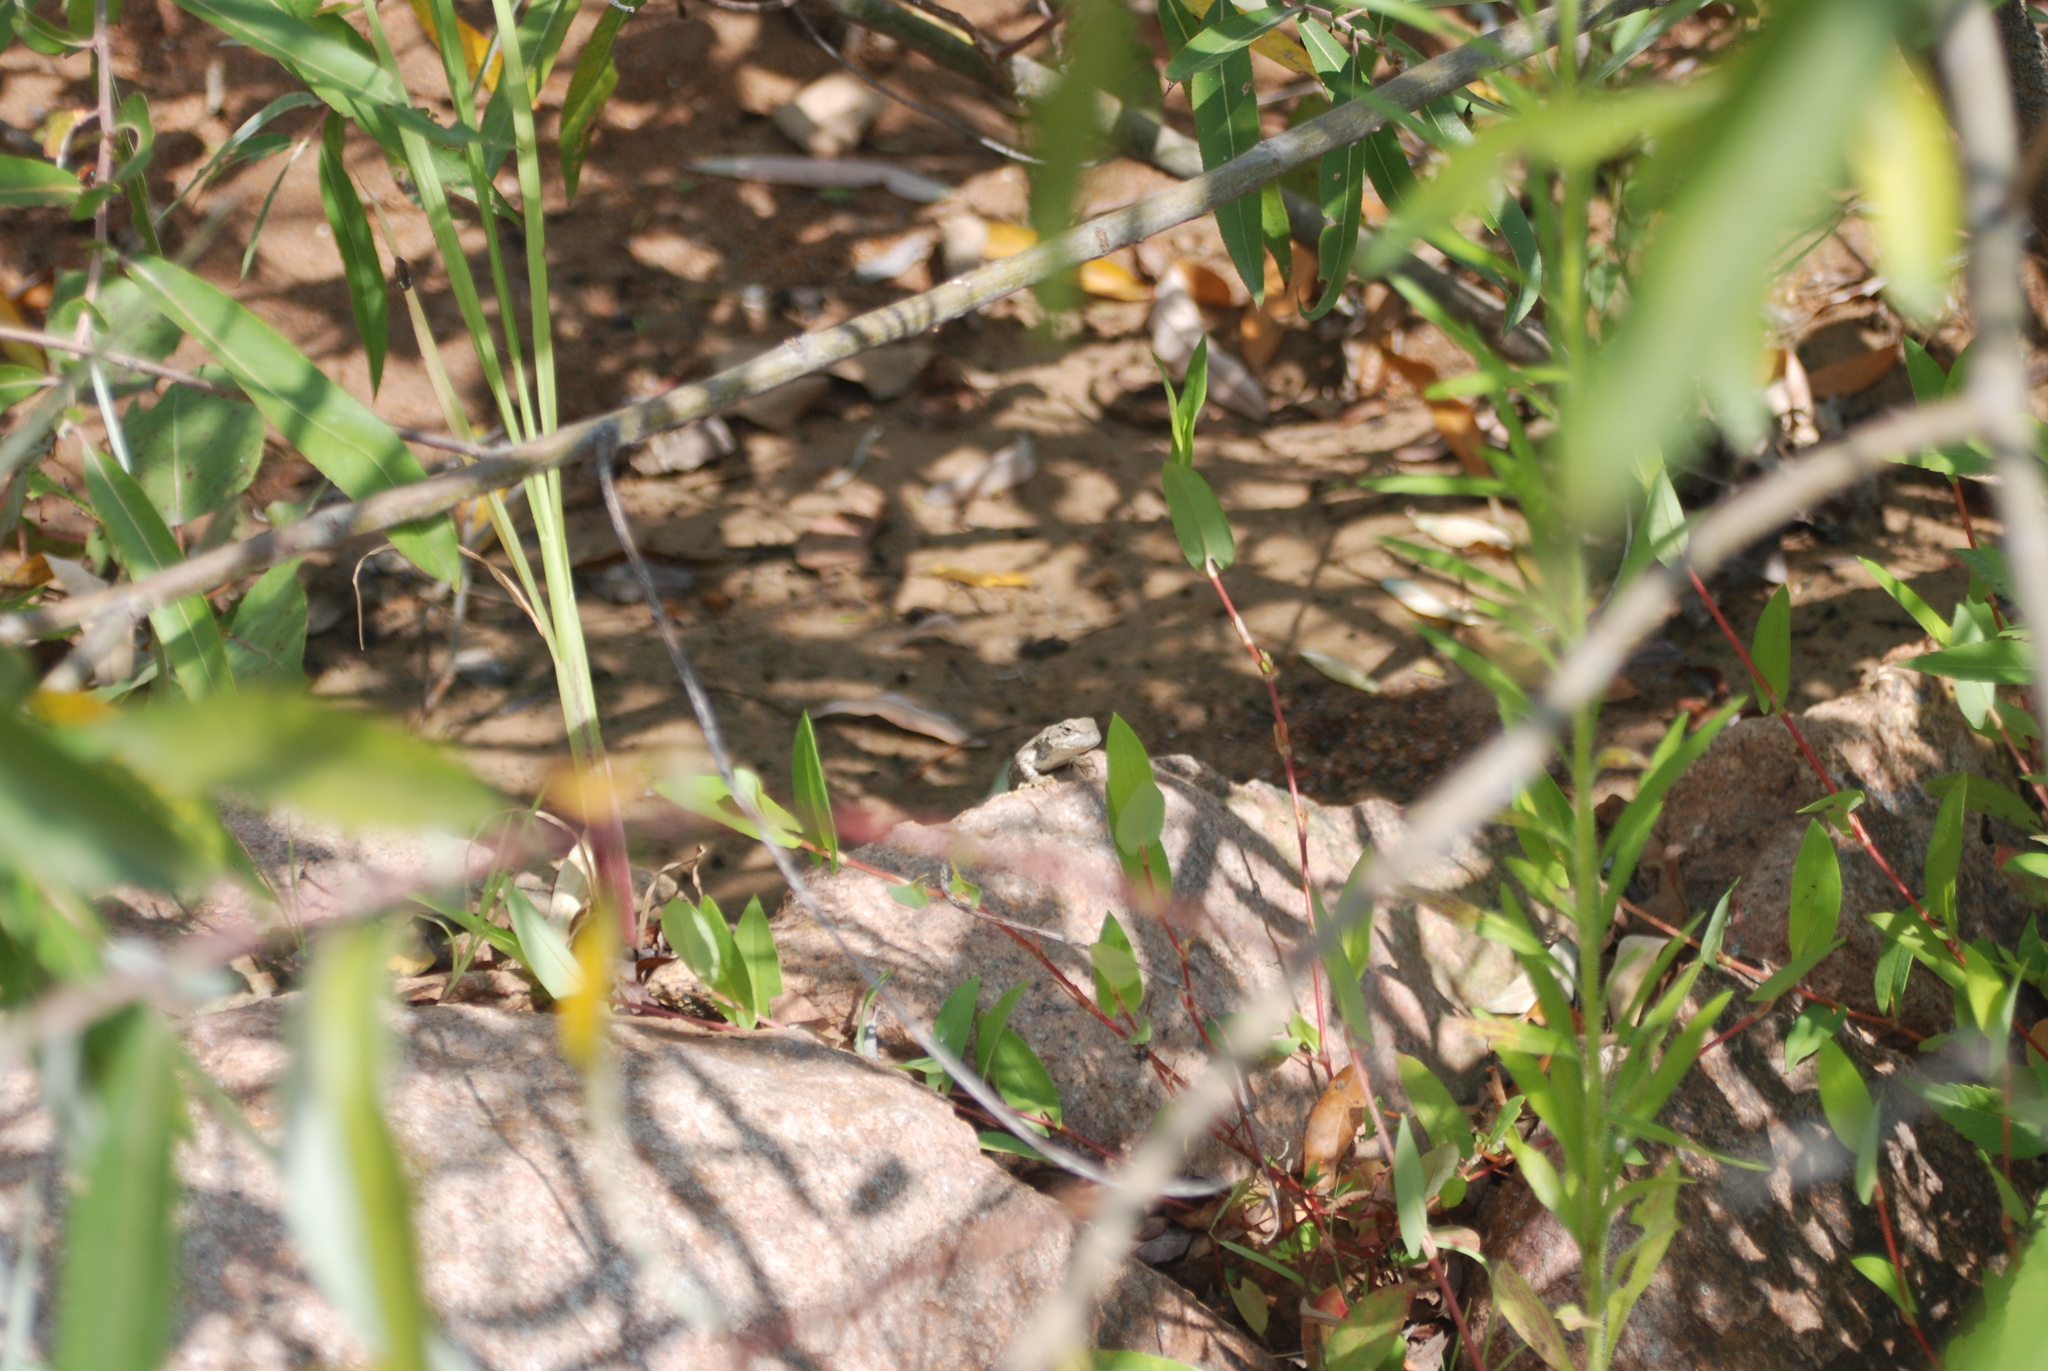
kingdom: Animalia
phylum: Chordata
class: Squamata
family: Phrynosomatidae
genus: Sceloporus
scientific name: Sceloporus consobrinus
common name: Southern prairie lizard
